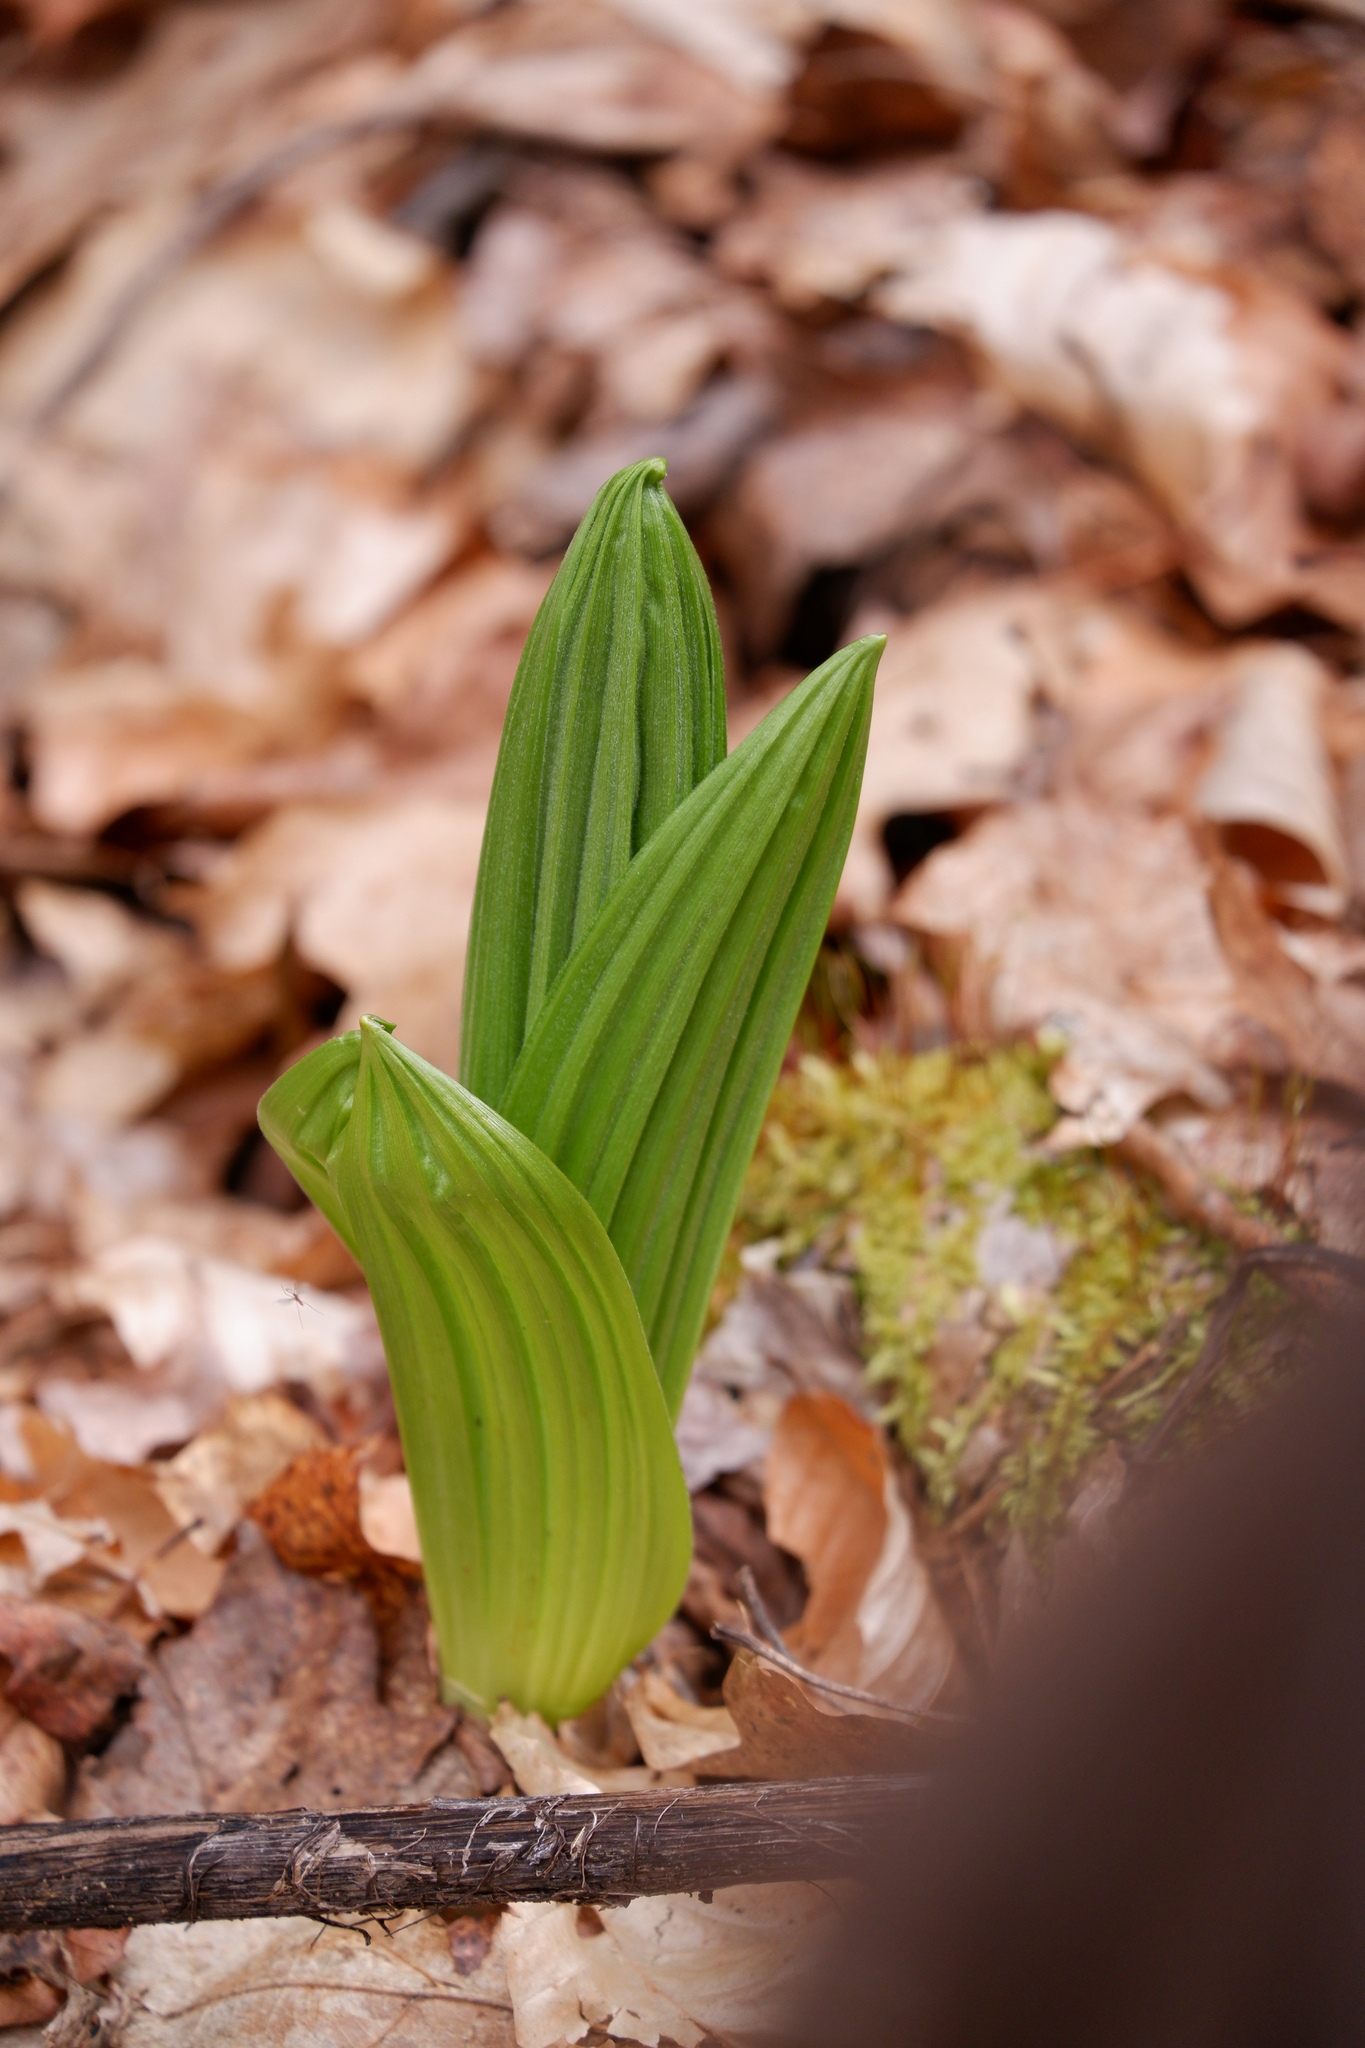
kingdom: Plantae
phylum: Tracheophyta
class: Liliopsida
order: Liliales
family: Melanthiaceae
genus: Veratrum
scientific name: Veratrum viride
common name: American false hellebore
